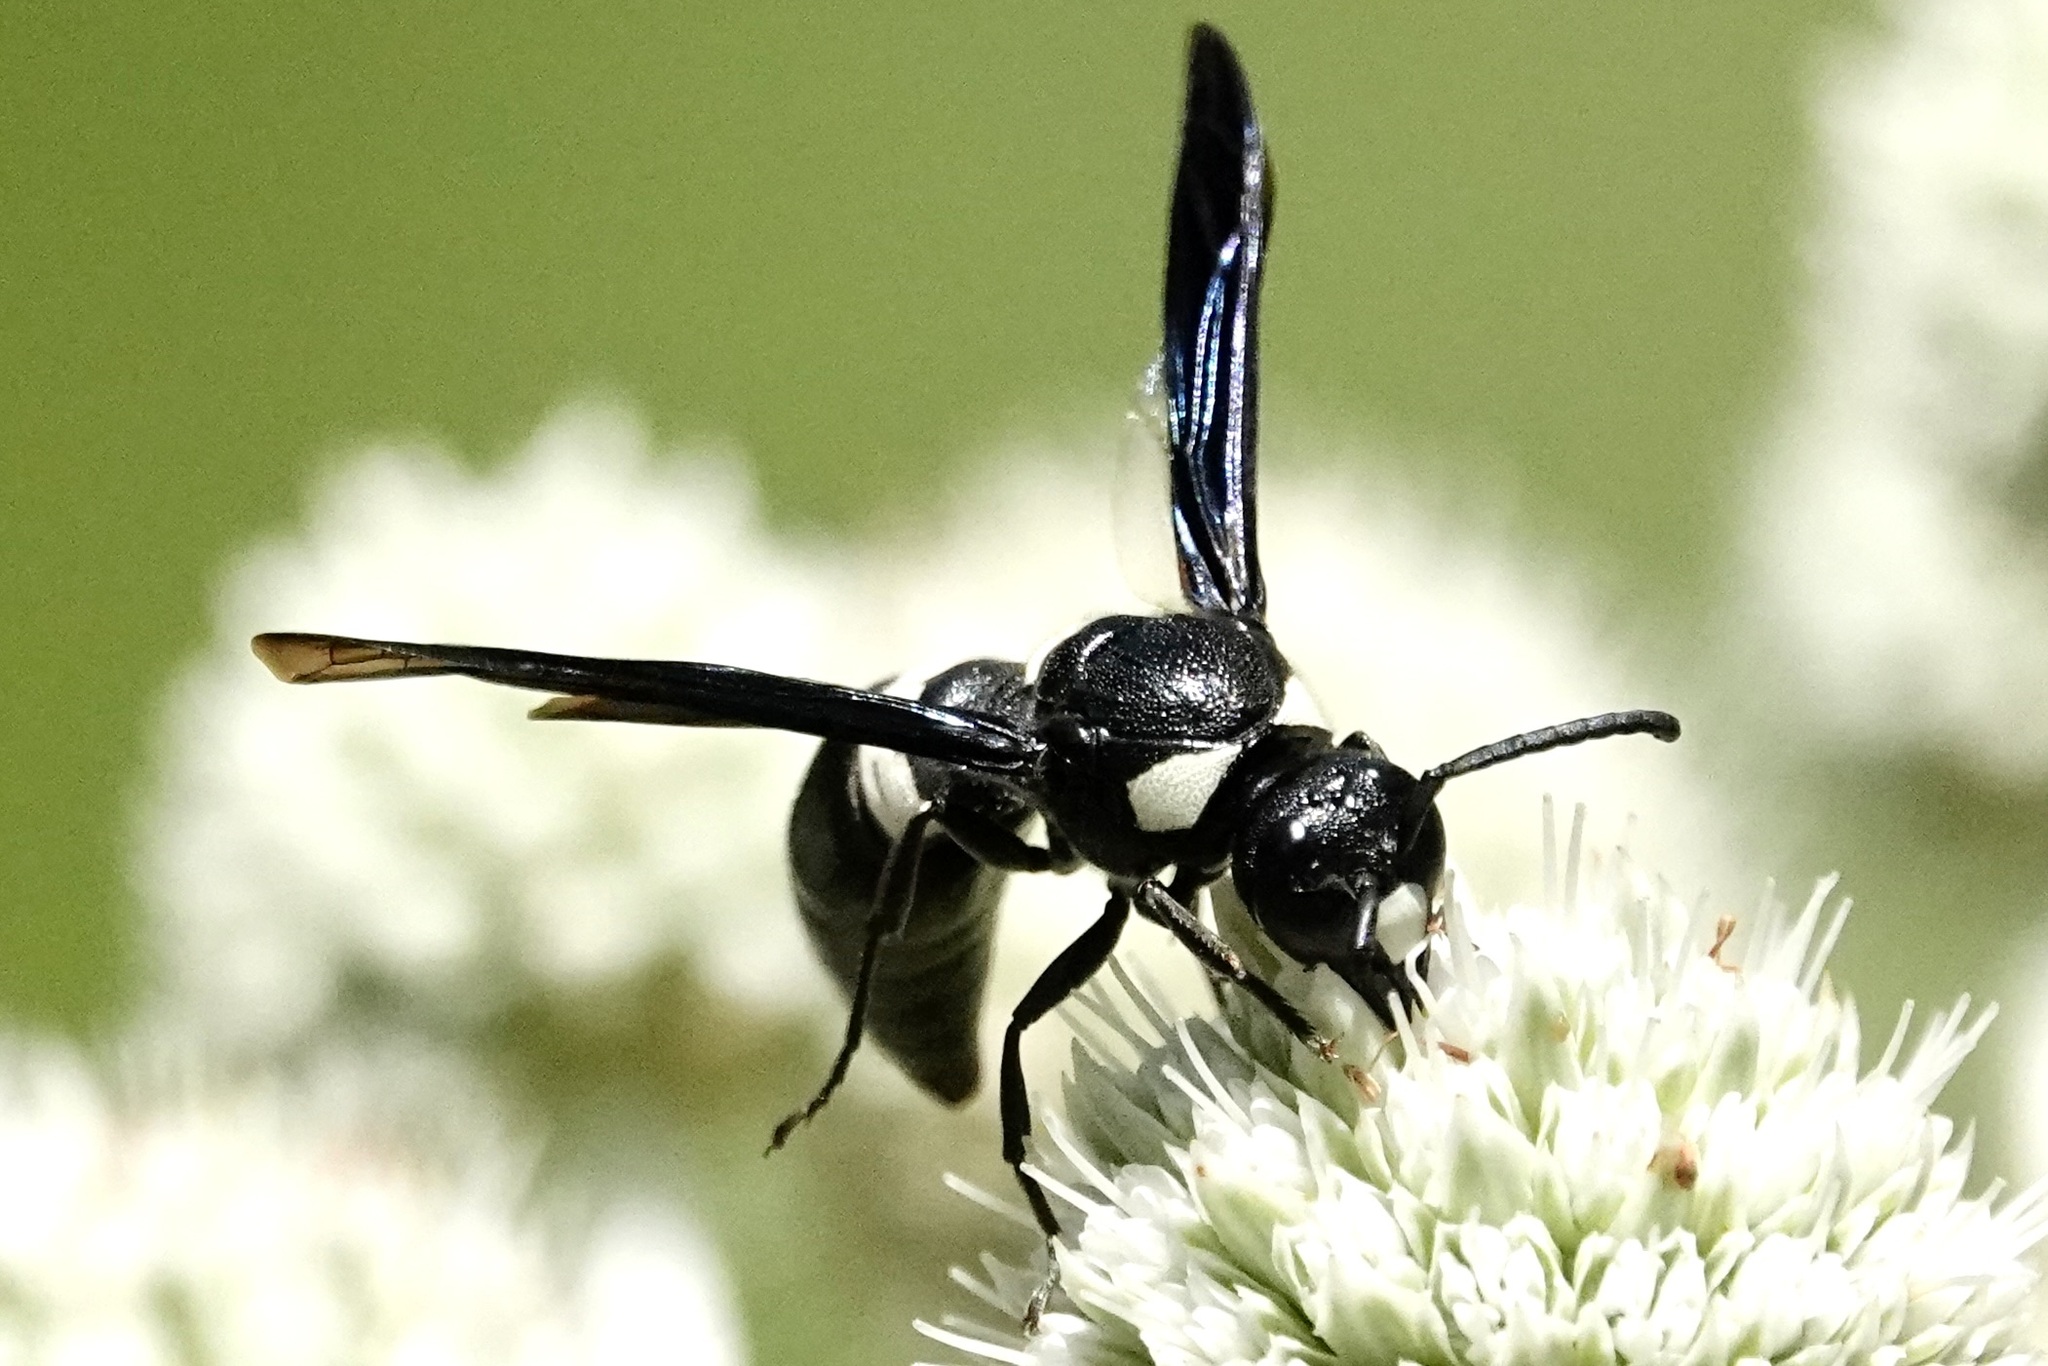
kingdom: Animalia
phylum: Arthropoda
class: Insecta
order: Hymenoptera
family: Eumenidae
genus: Monobia
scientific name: Monobia quadridens
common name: Four-toothed mason wasp
